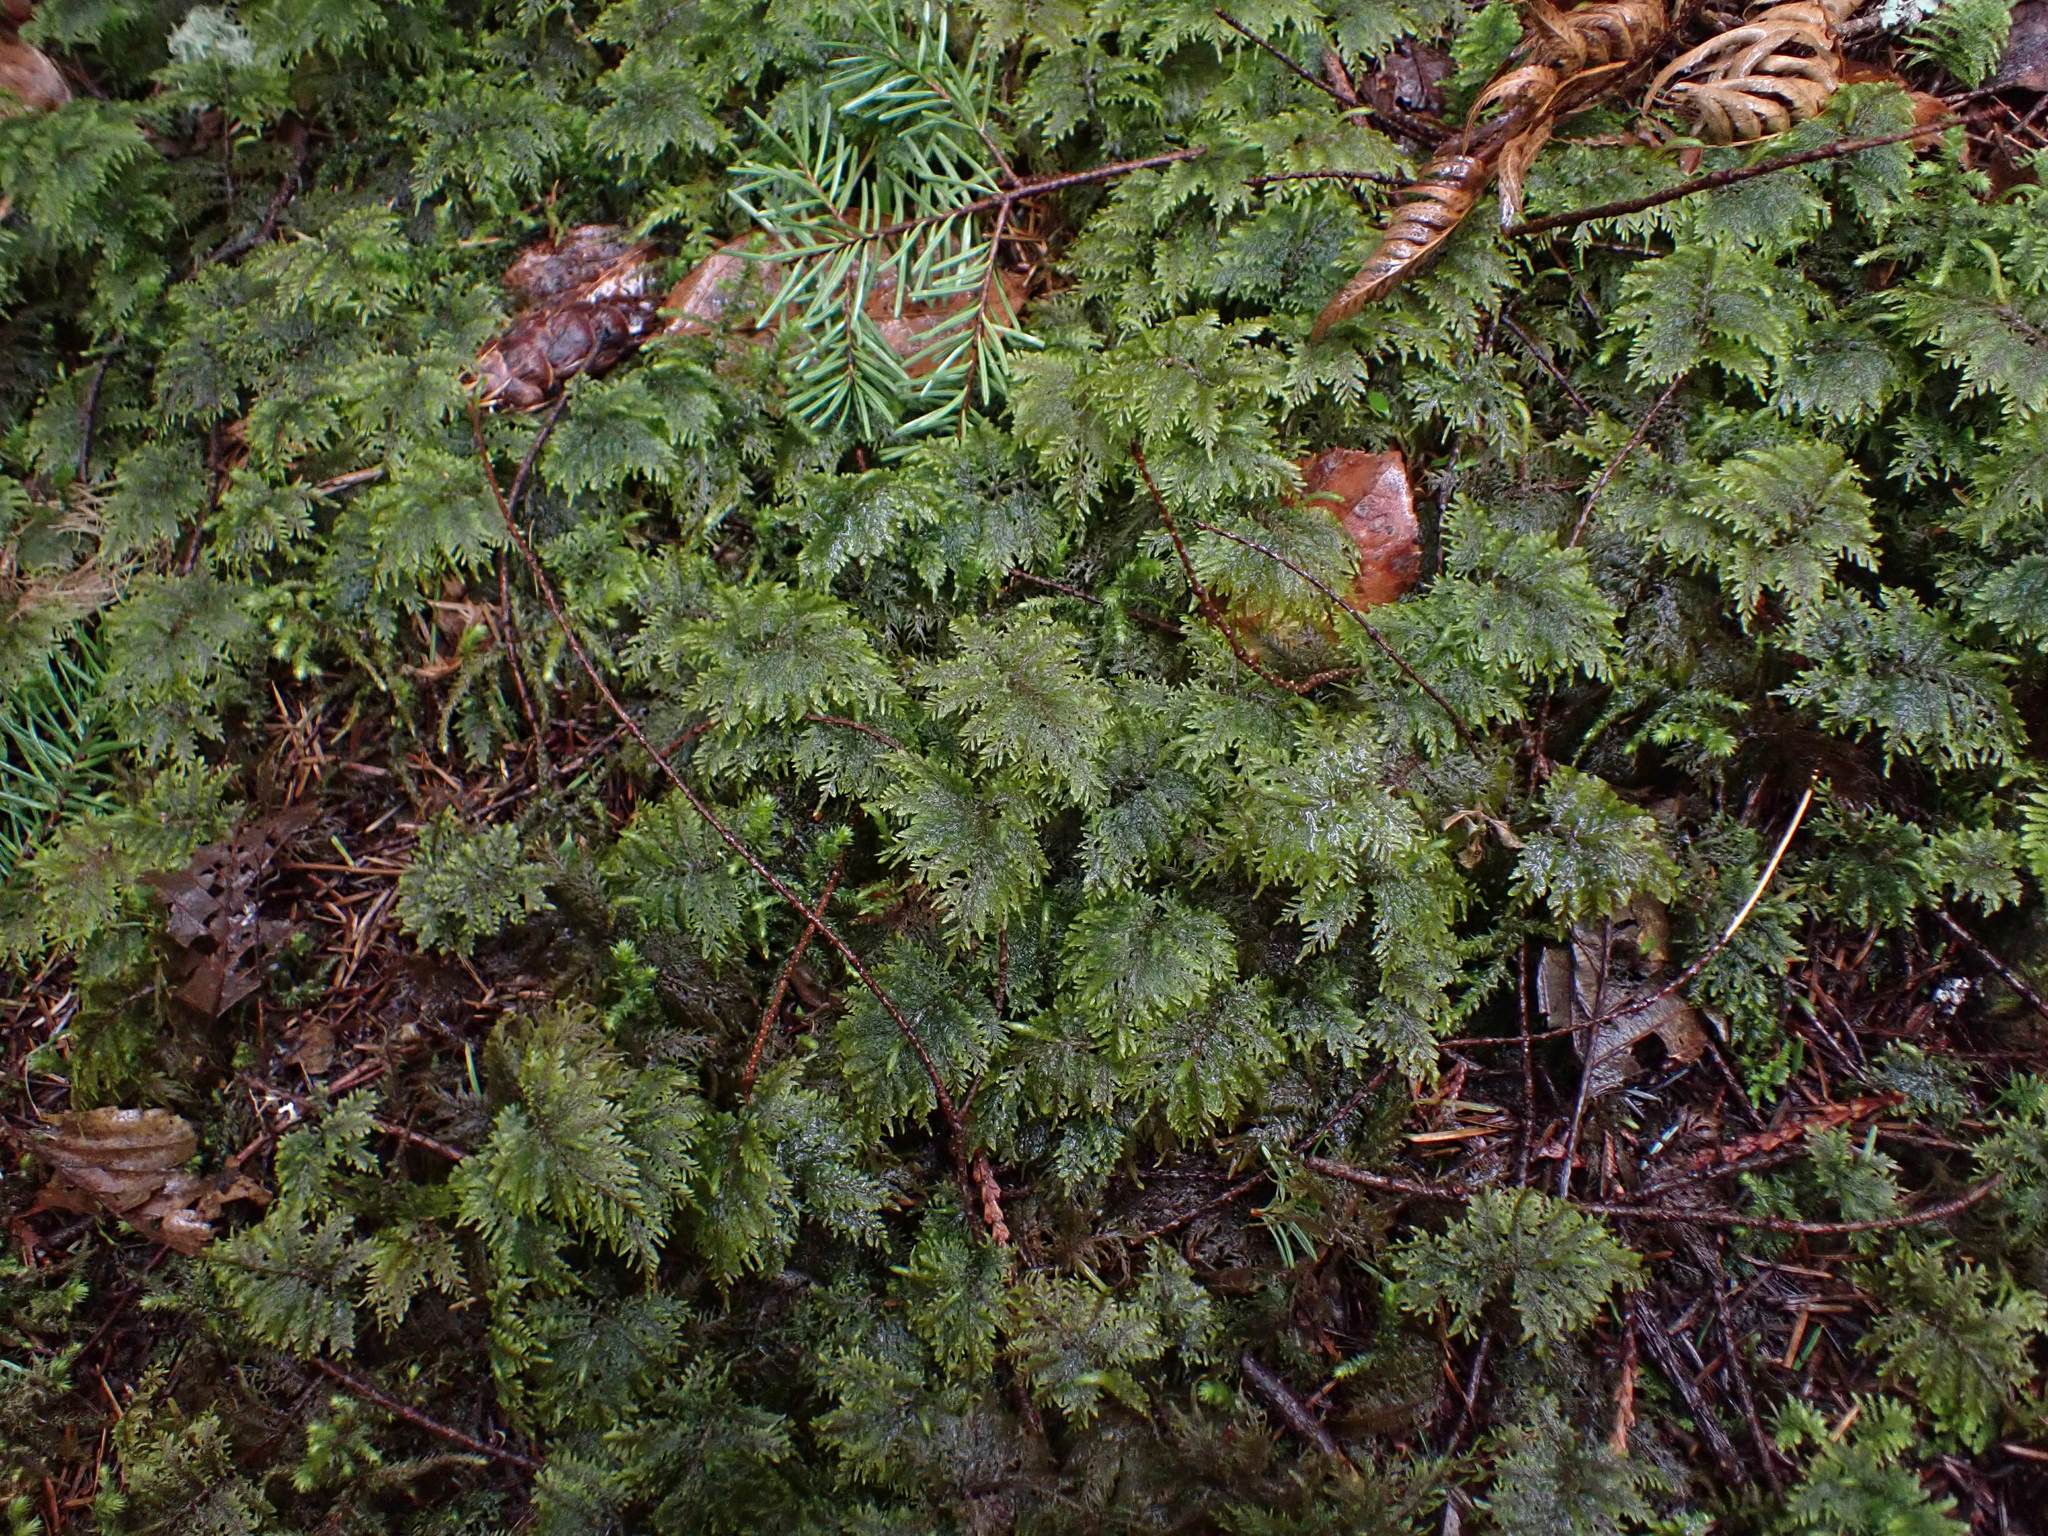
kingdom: Plantae
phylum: Bryophyta
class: Bryopsida
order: Hypnales
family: Hylocomiaceae
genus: Hylocomium
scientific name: Hylocomium splendens
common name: Stairstep moss
